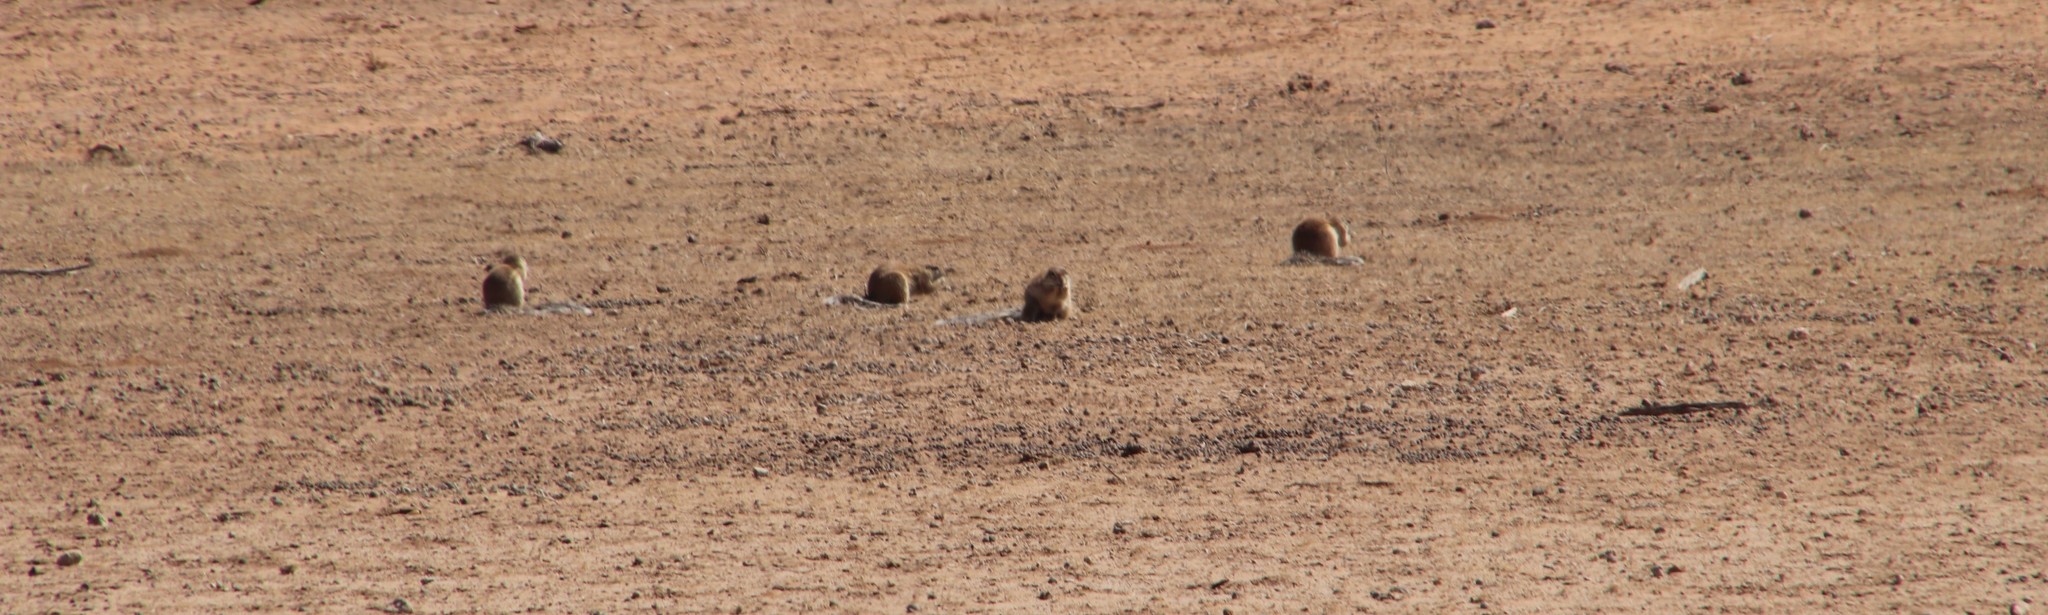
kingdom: Animalia
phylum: Chordata
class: Mammalia
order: Rodentia
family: Sciuridae
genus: Xerus
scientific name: Xerus inauris
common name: South african ground squirrel
